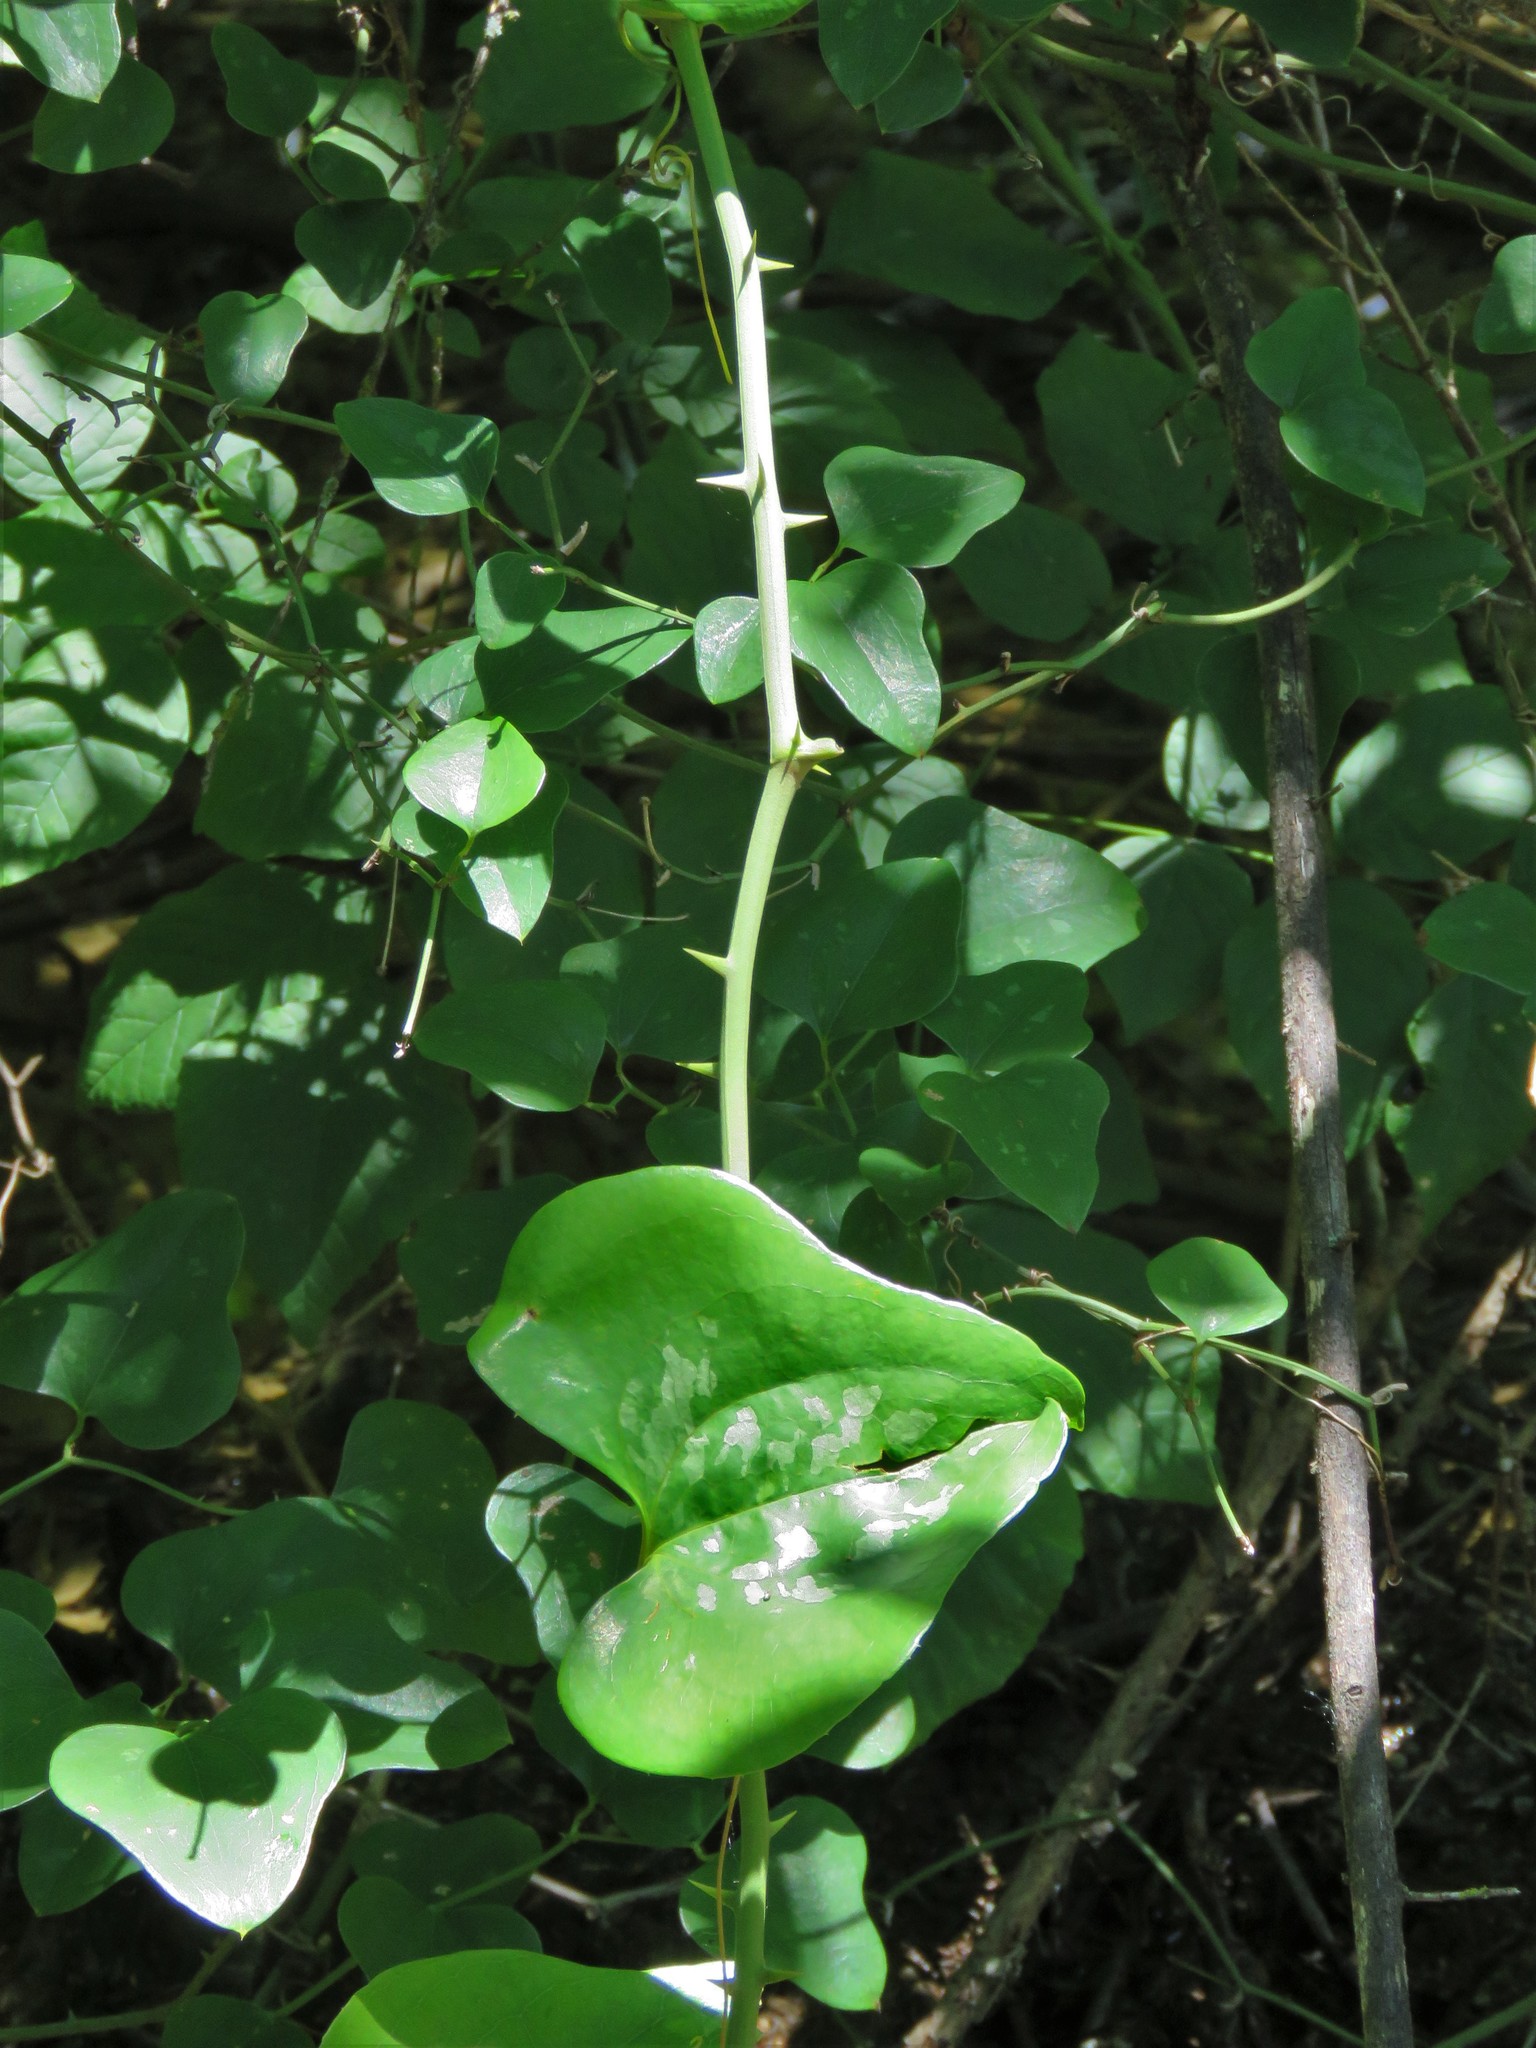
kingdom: Plantae
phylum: Tracheophyta
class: Liliopsida
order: Liliales
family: Smilacaceae
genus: Smilax
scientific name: Smilax bona-nox
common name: Catbrier
